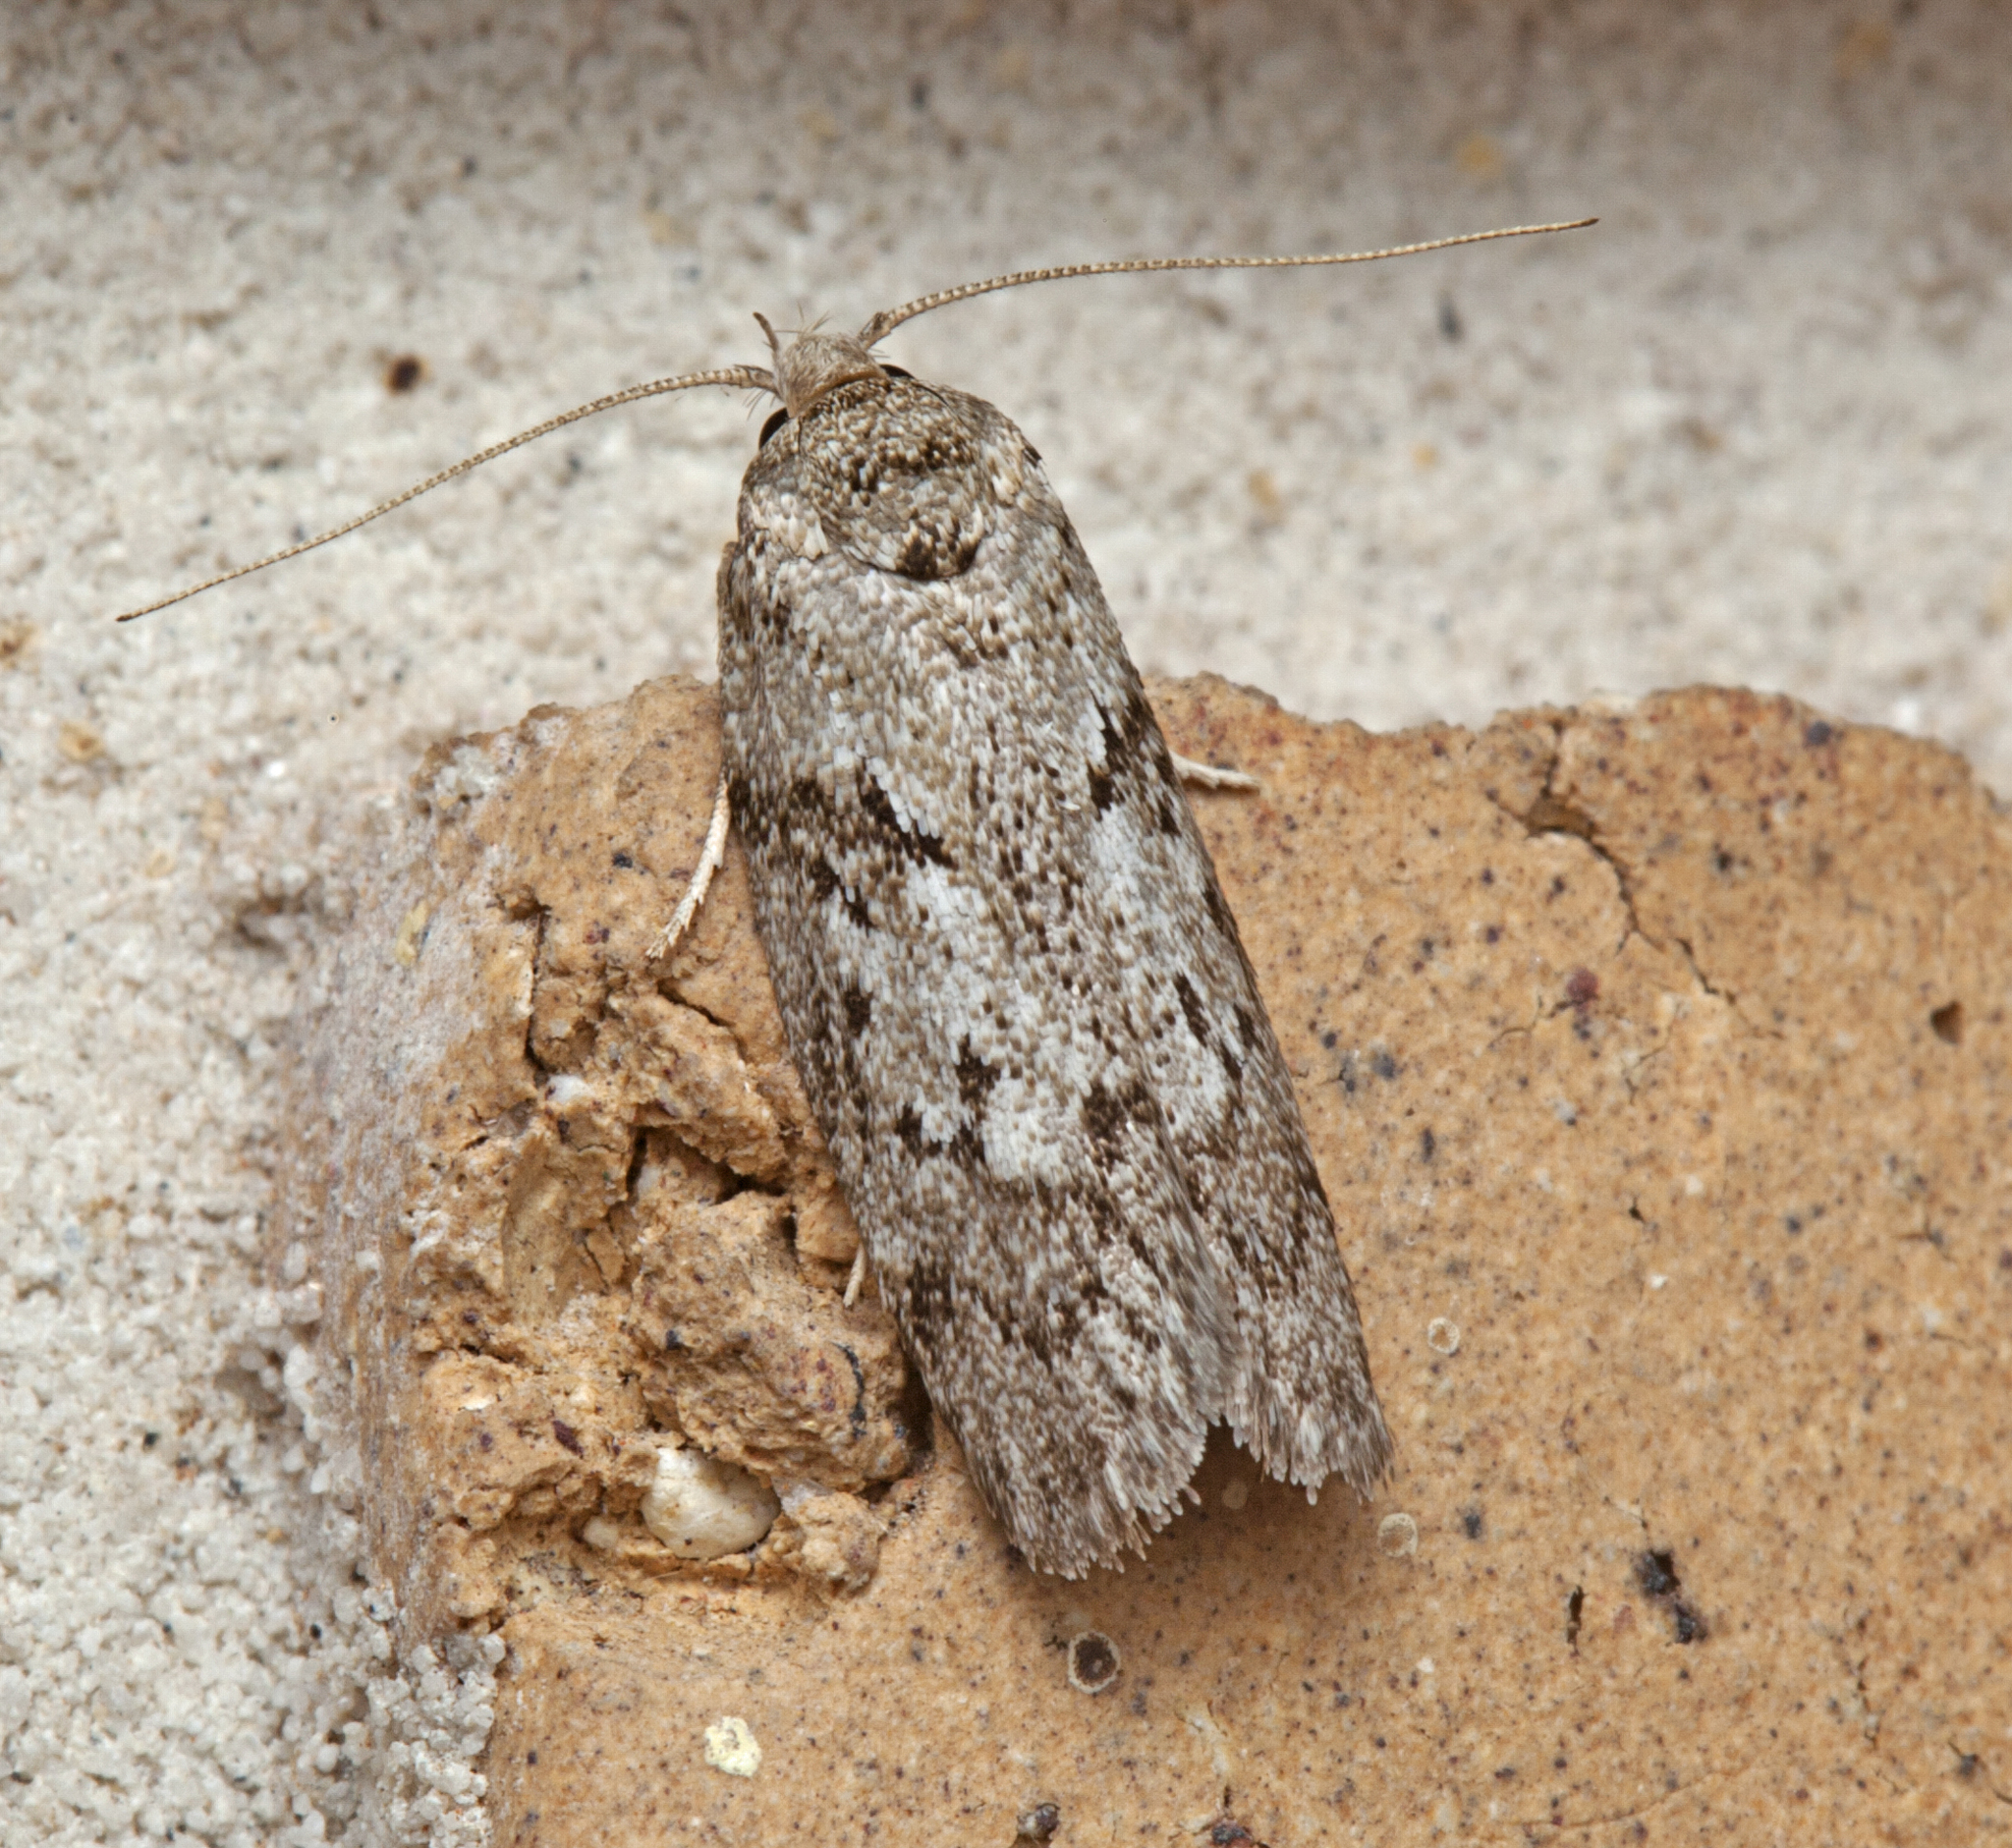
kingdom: Animalia
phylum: Arthropoda
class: Insecta
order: Lepidoptera
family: Oecophoridae
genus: Philobota
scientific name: Philobota philostaura
